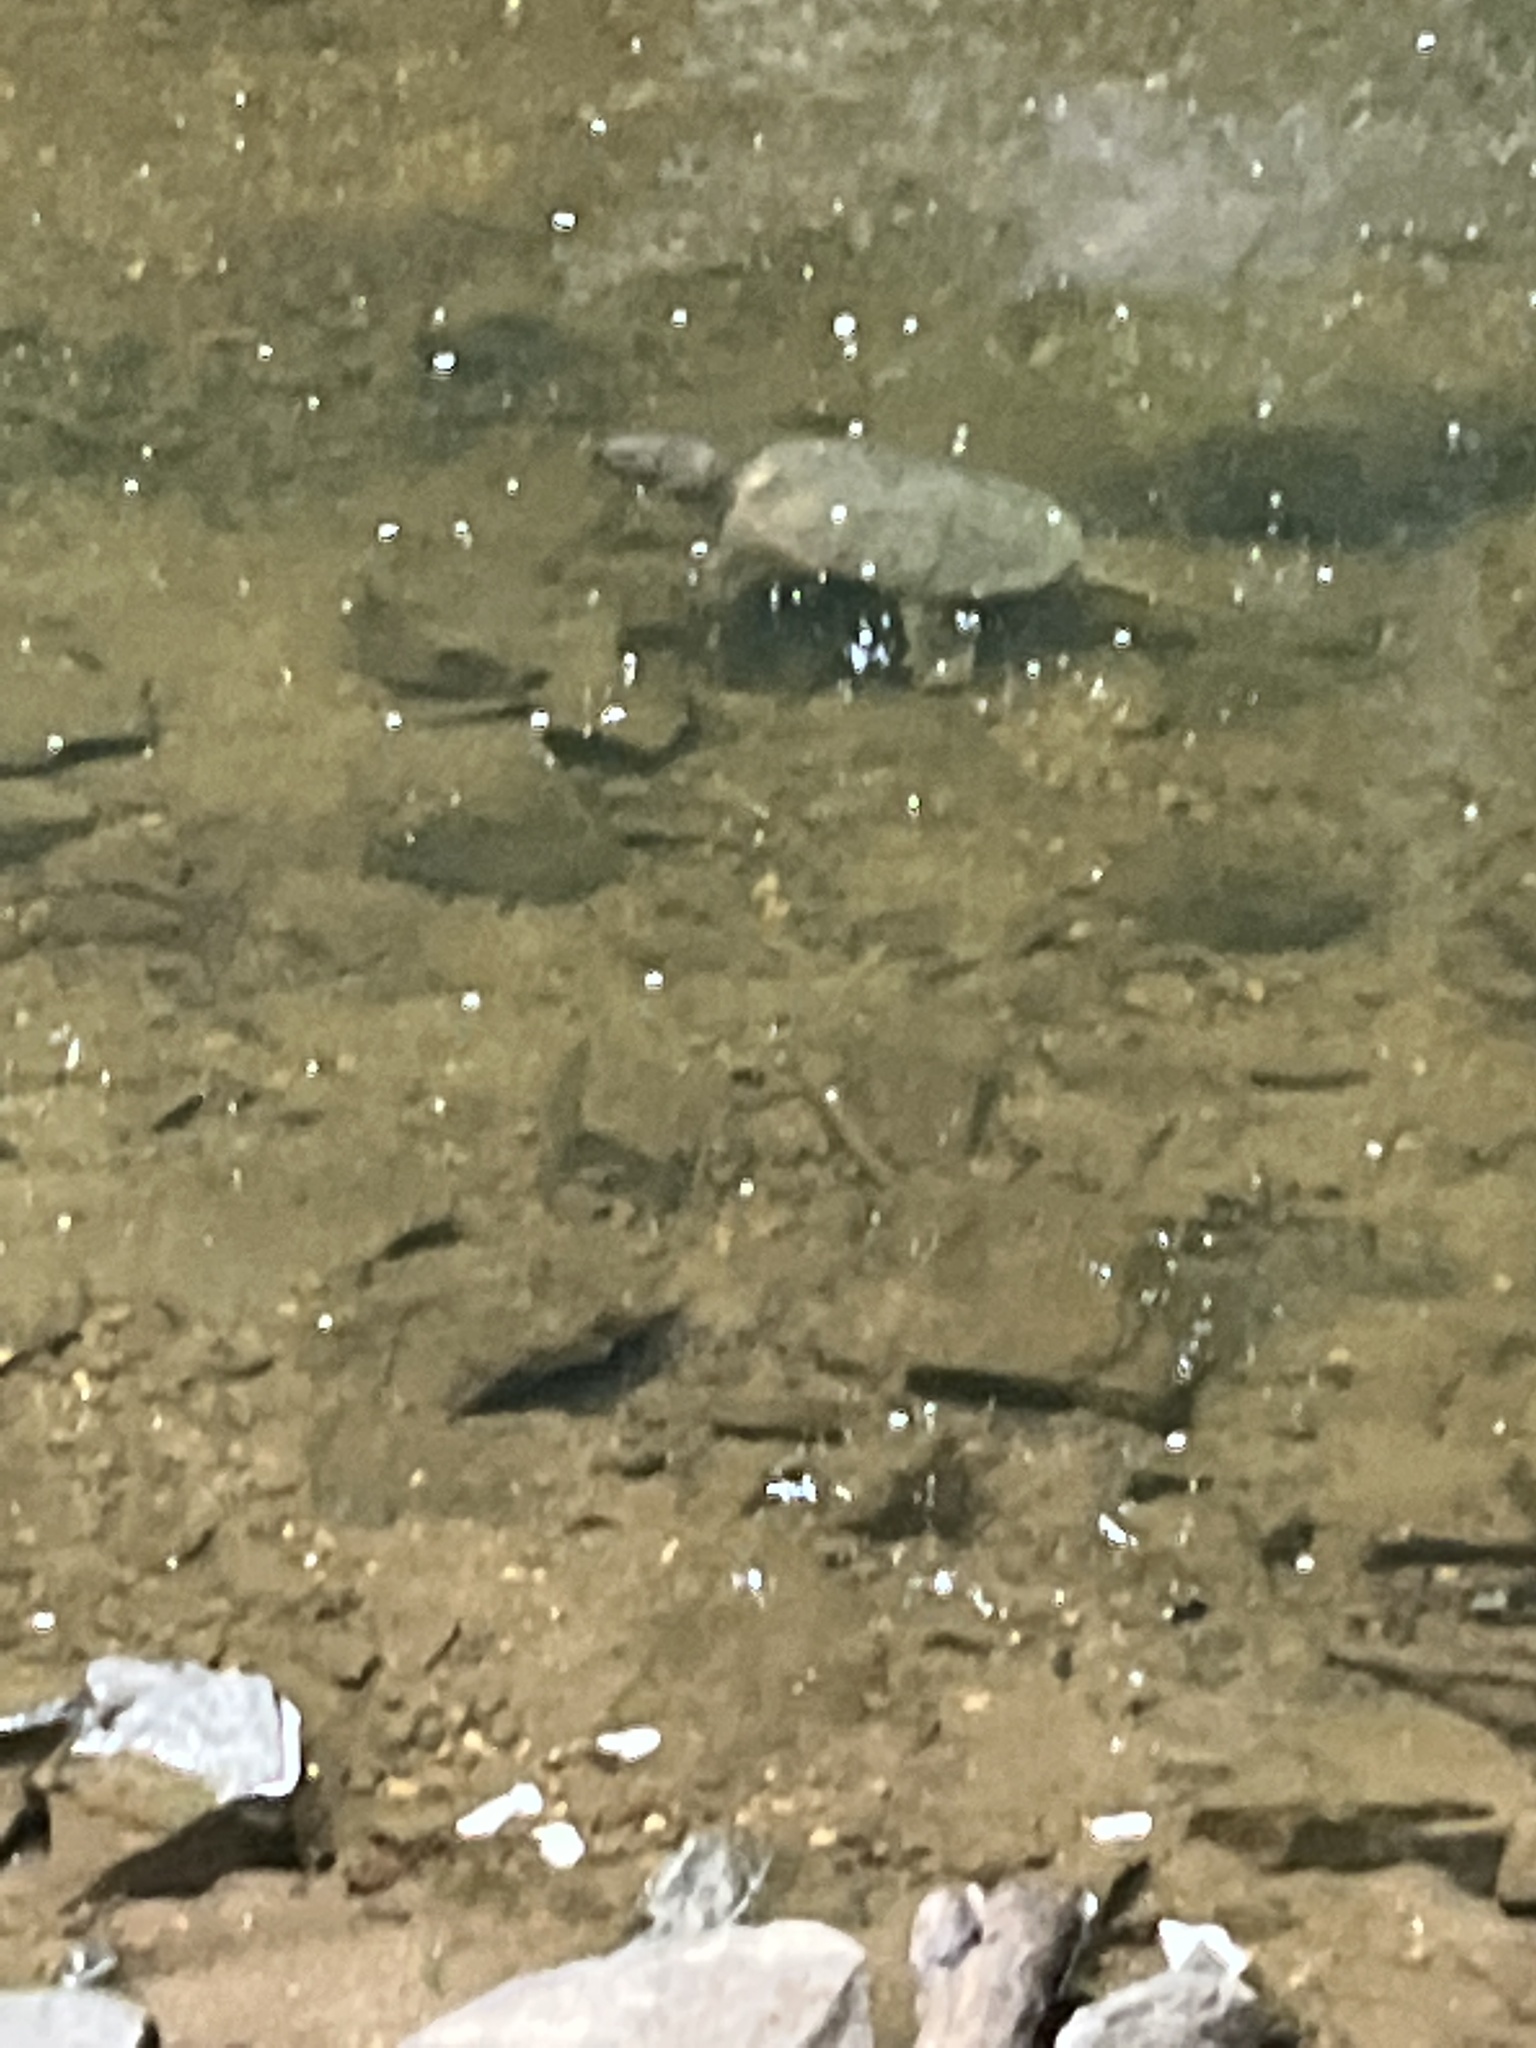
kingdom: Animalia
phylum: Chordata
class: Testudines
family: Chelydridae
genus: Chelydra
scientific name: Chelydra serpentina
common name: Common snapping turtle
